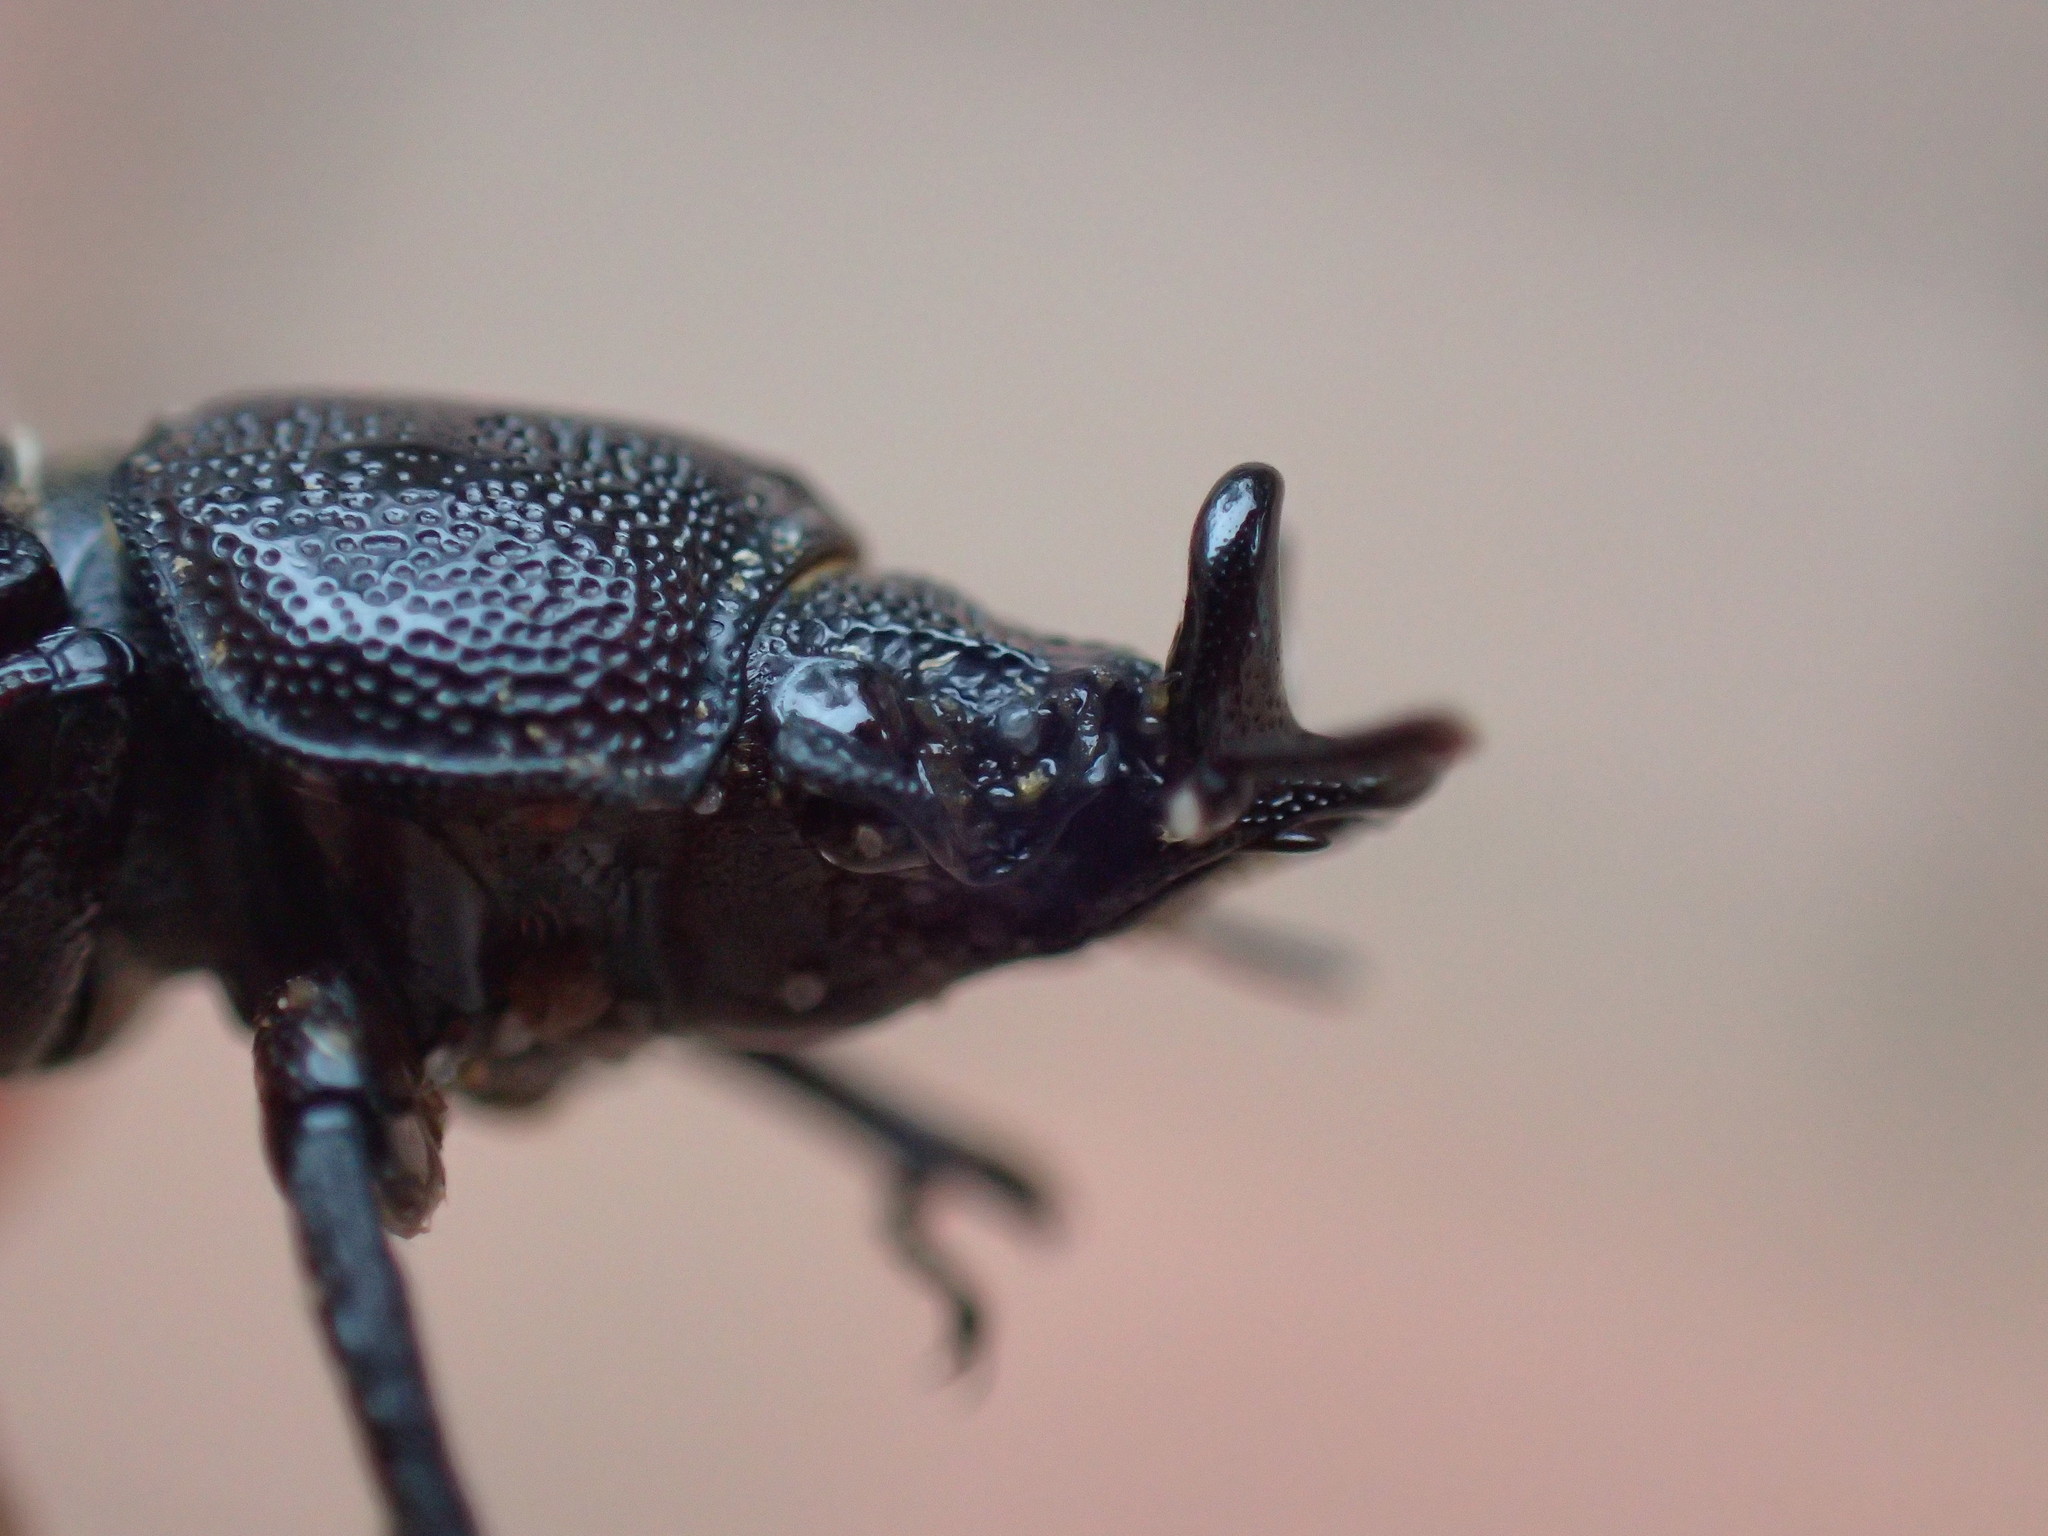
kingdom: Animalia
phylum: Arthropoda
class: Insecta
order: Coleoptera
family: Lucanidae
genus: Nigidius
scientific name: Nigidius delegorguei
